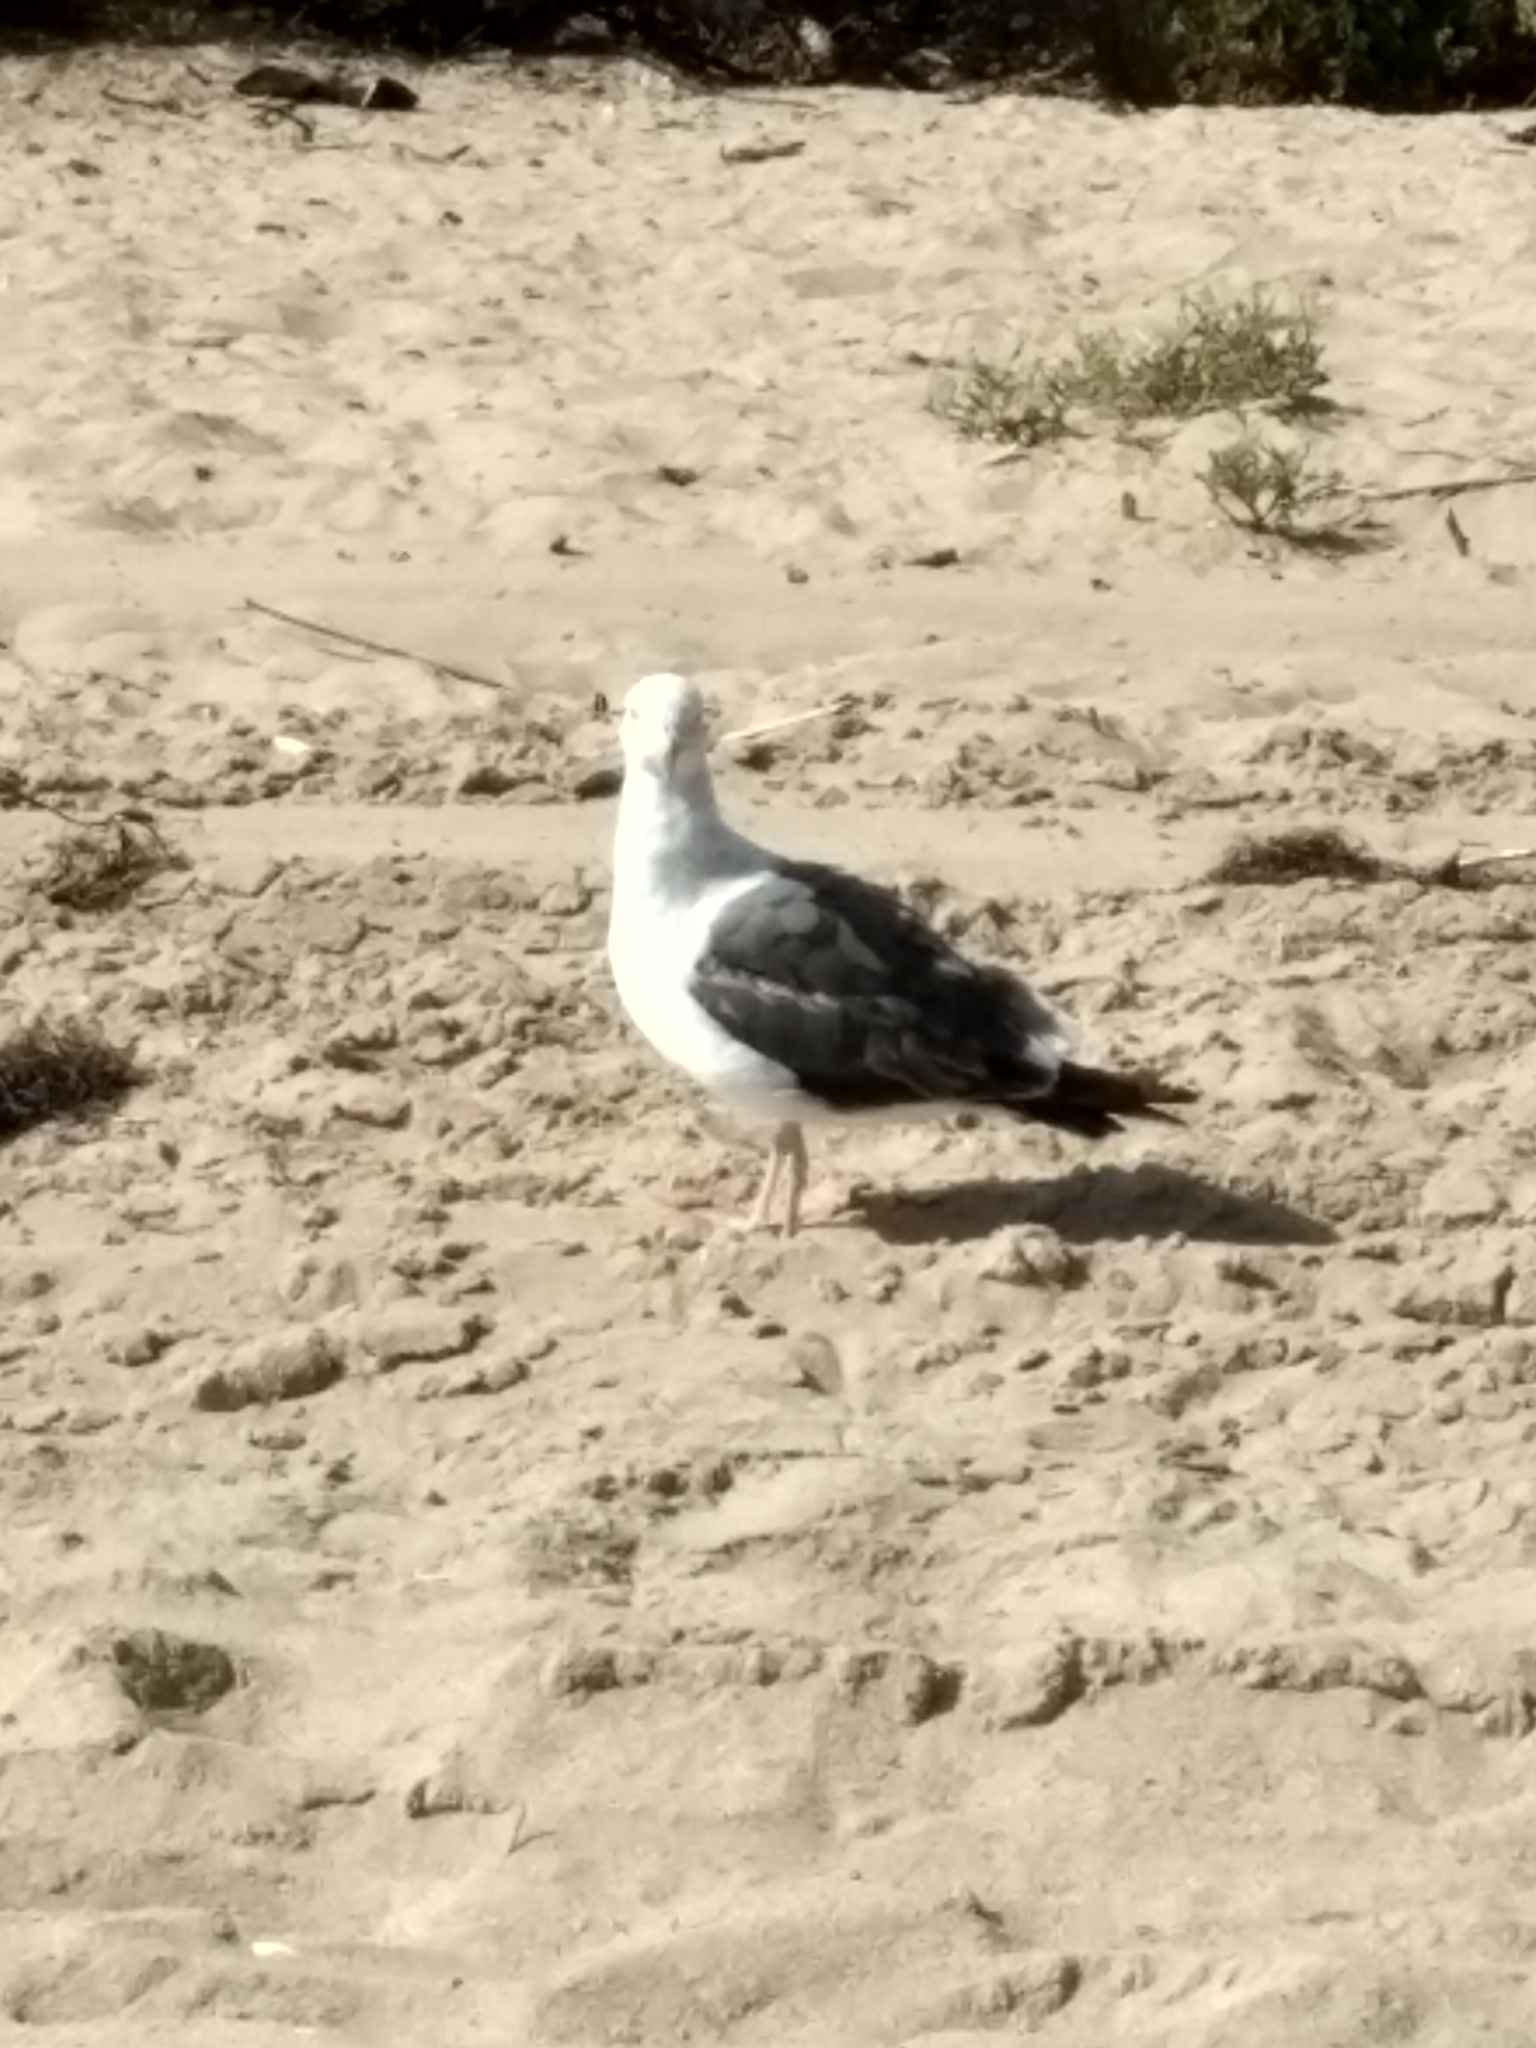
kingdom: Animalia
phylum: Chordata
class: Aves
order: Charadriiformes
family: Laridae
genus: Larus
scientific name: Larus occidentalis
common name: Western gull
